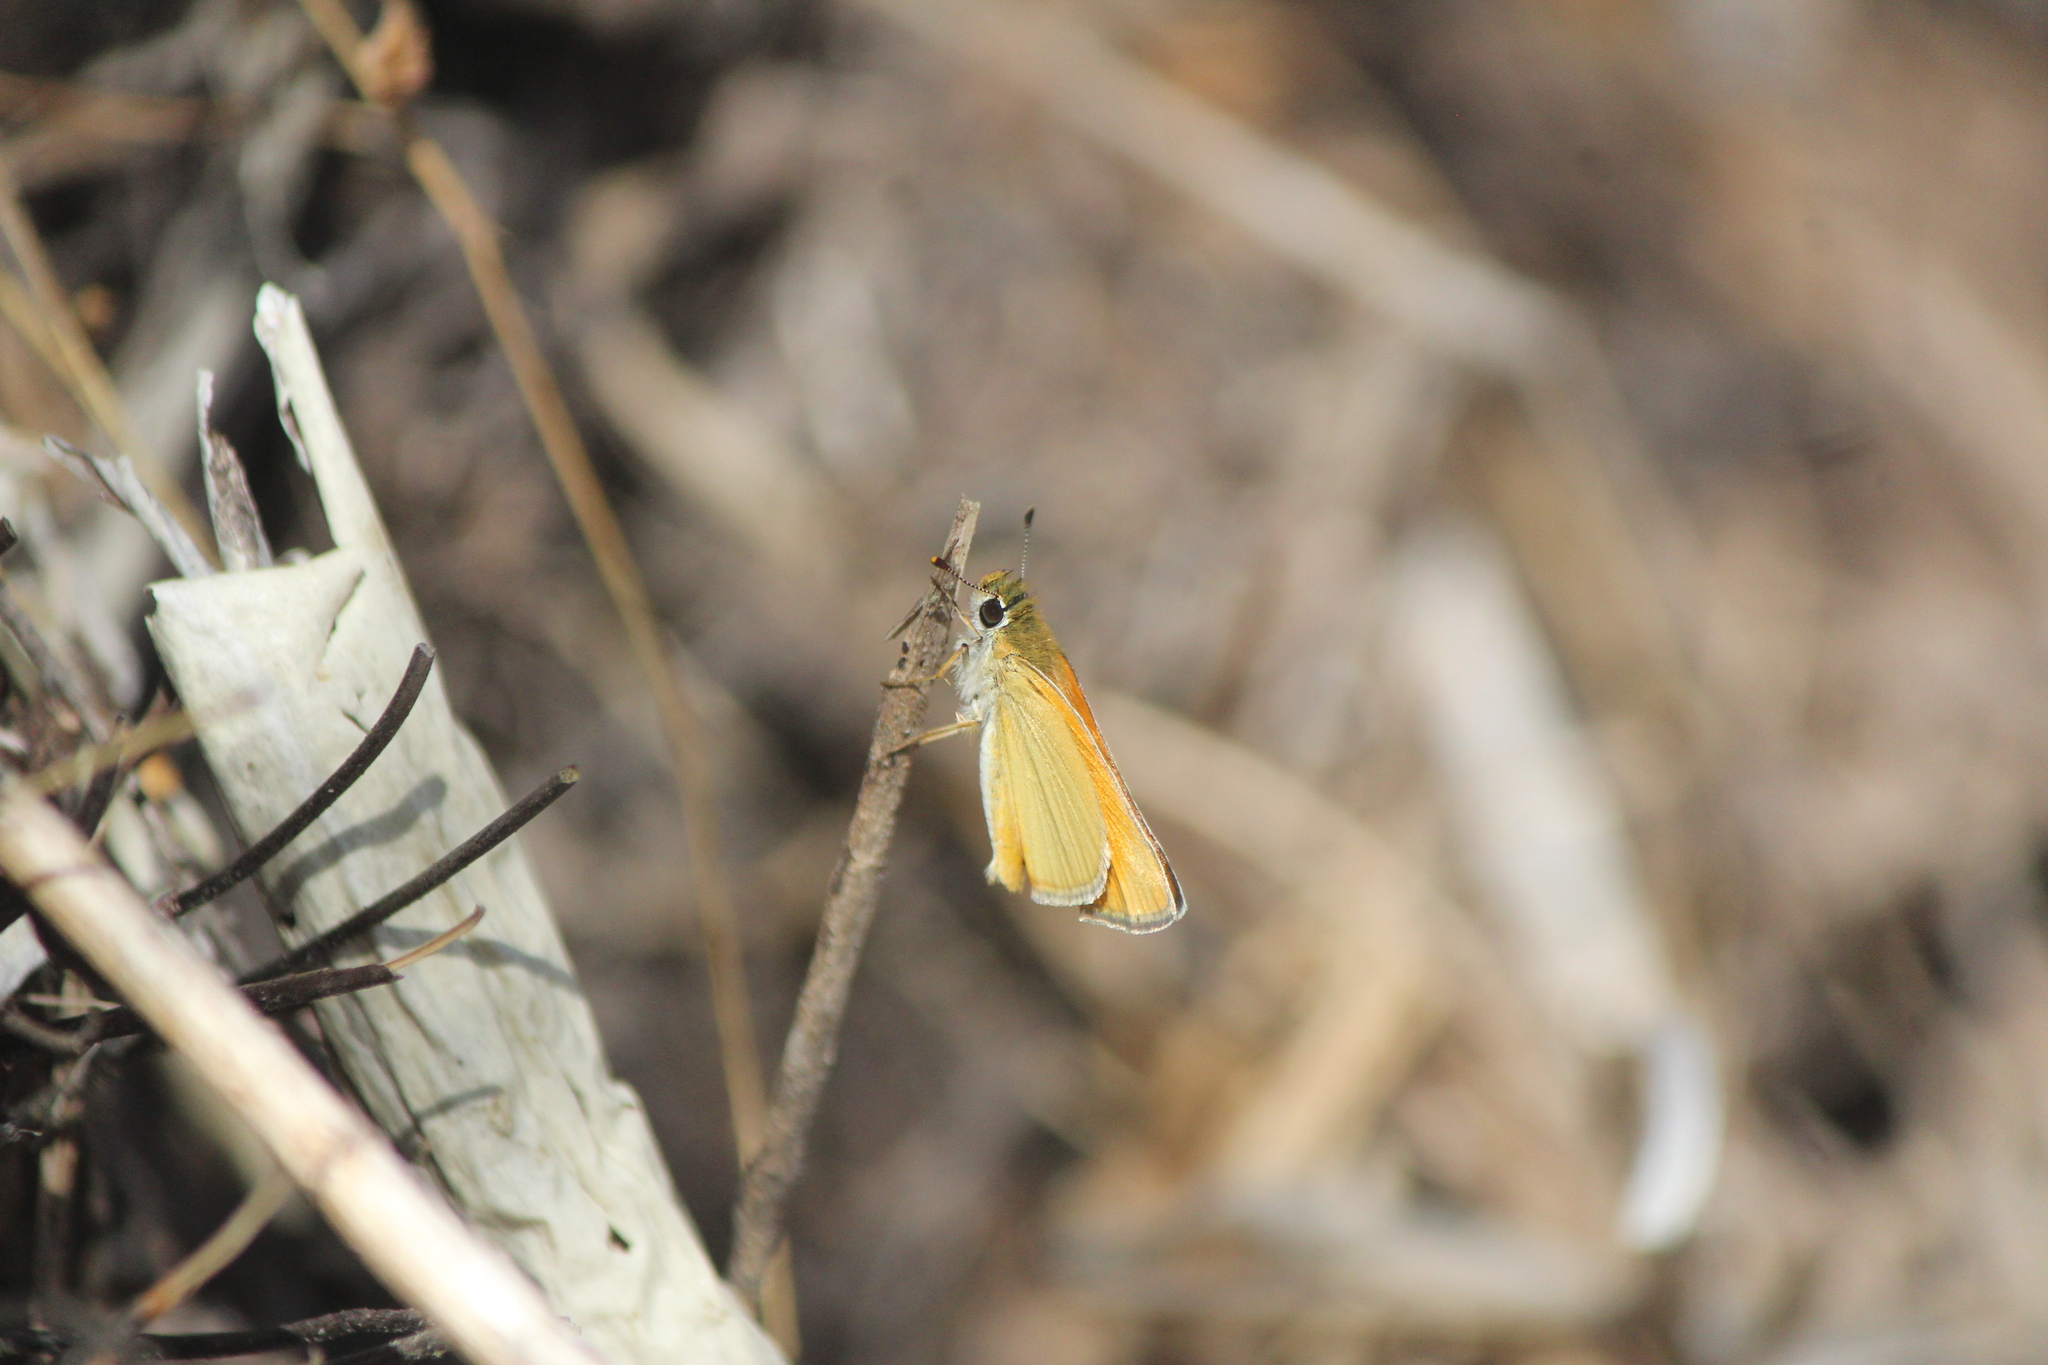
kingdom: Animalia
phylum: Arthropoda
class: Insecta
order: Lepidoptera
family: Hesperiidae
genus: Copaeodes
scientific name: Copaeodes aurantiaca
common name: Orange skipperling
